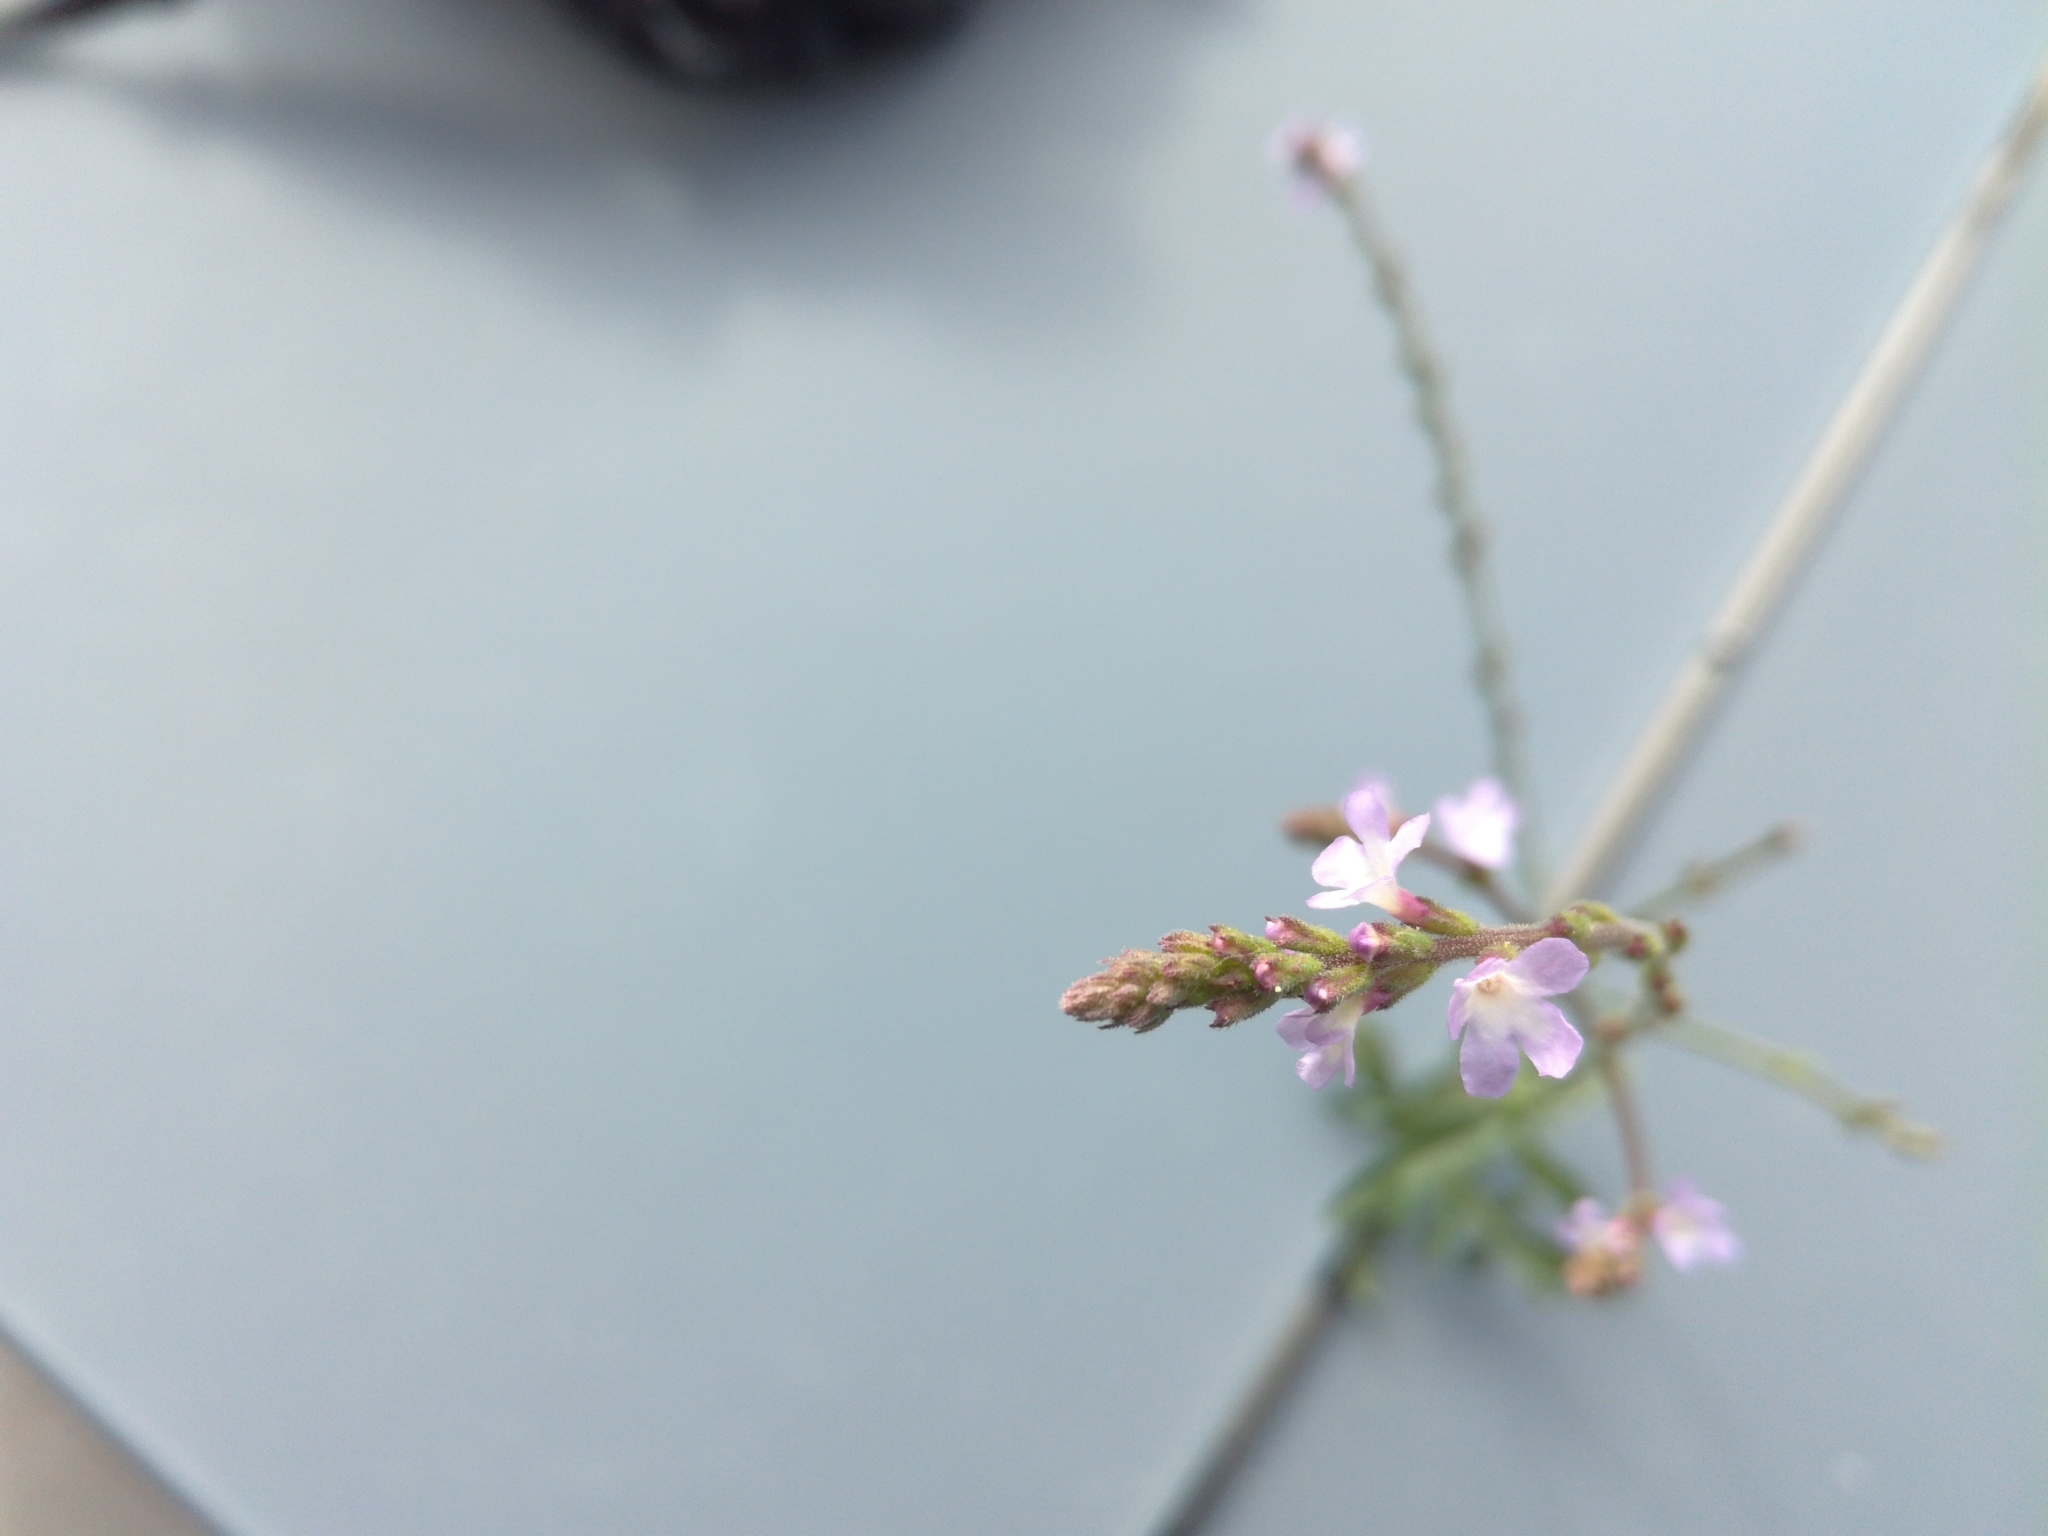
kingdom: Plantae
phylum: Tracheophyta
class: Magnoliopsida
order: Lamiales
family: Verbenaceae
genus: Verbena
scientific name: Verbena officinalis
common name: Vervain
